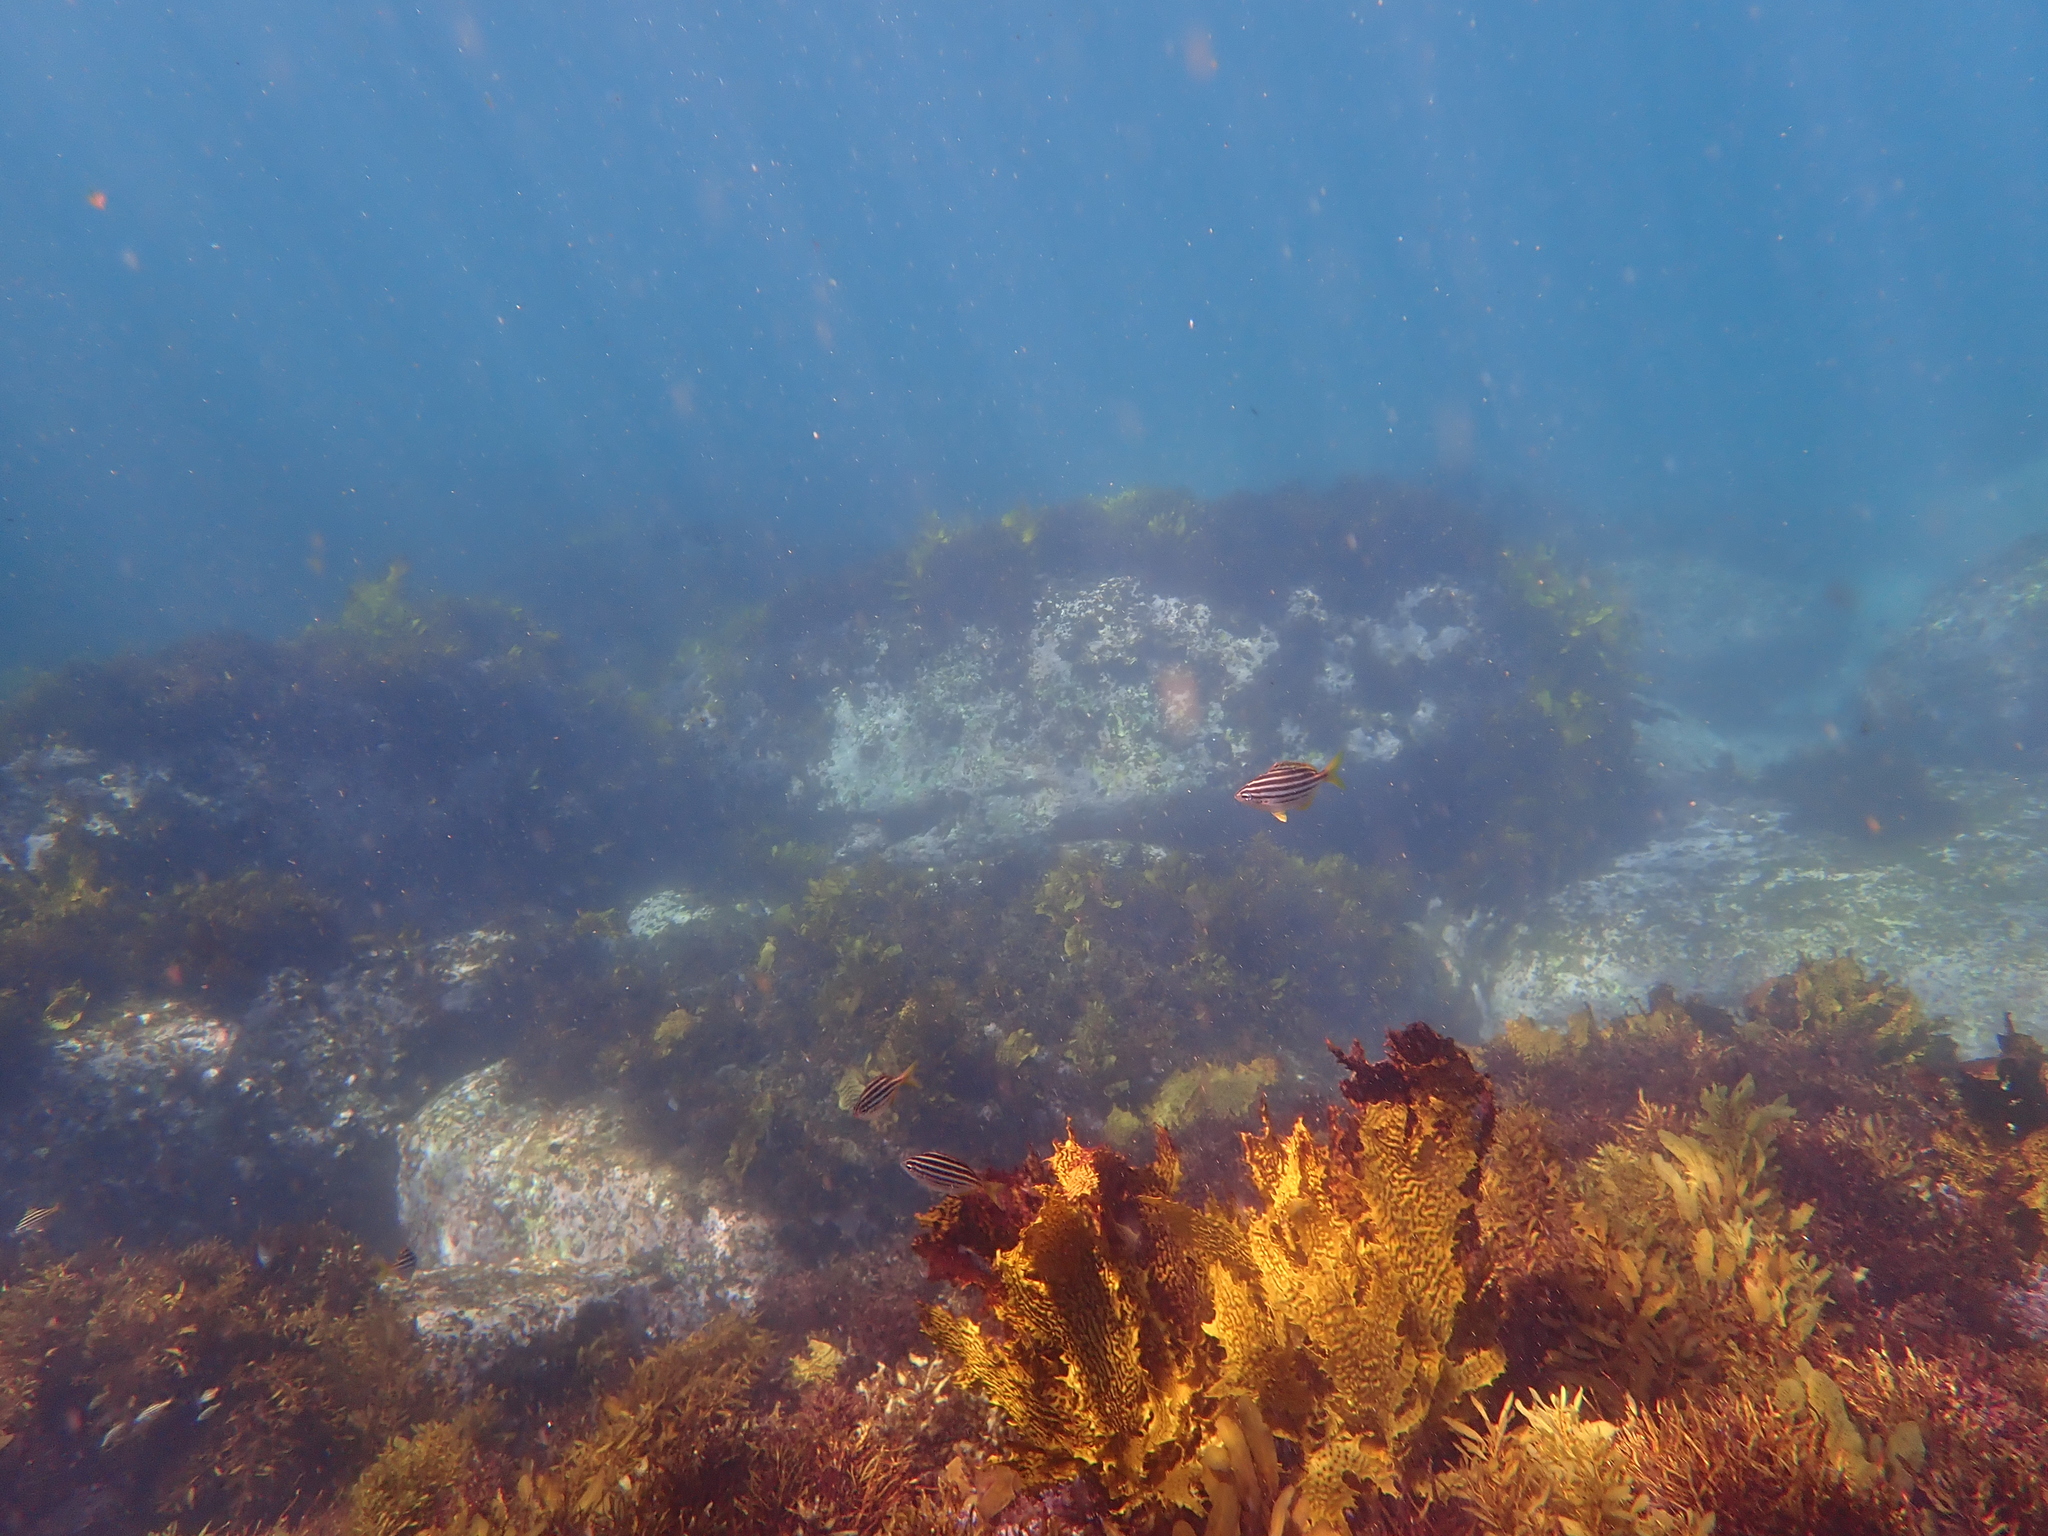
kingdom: Animalia
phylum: Chordata
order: Perciformes
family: Kyphosidae
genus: Atypichthys
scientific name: Atypichthys strigatus
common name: Australian mado
